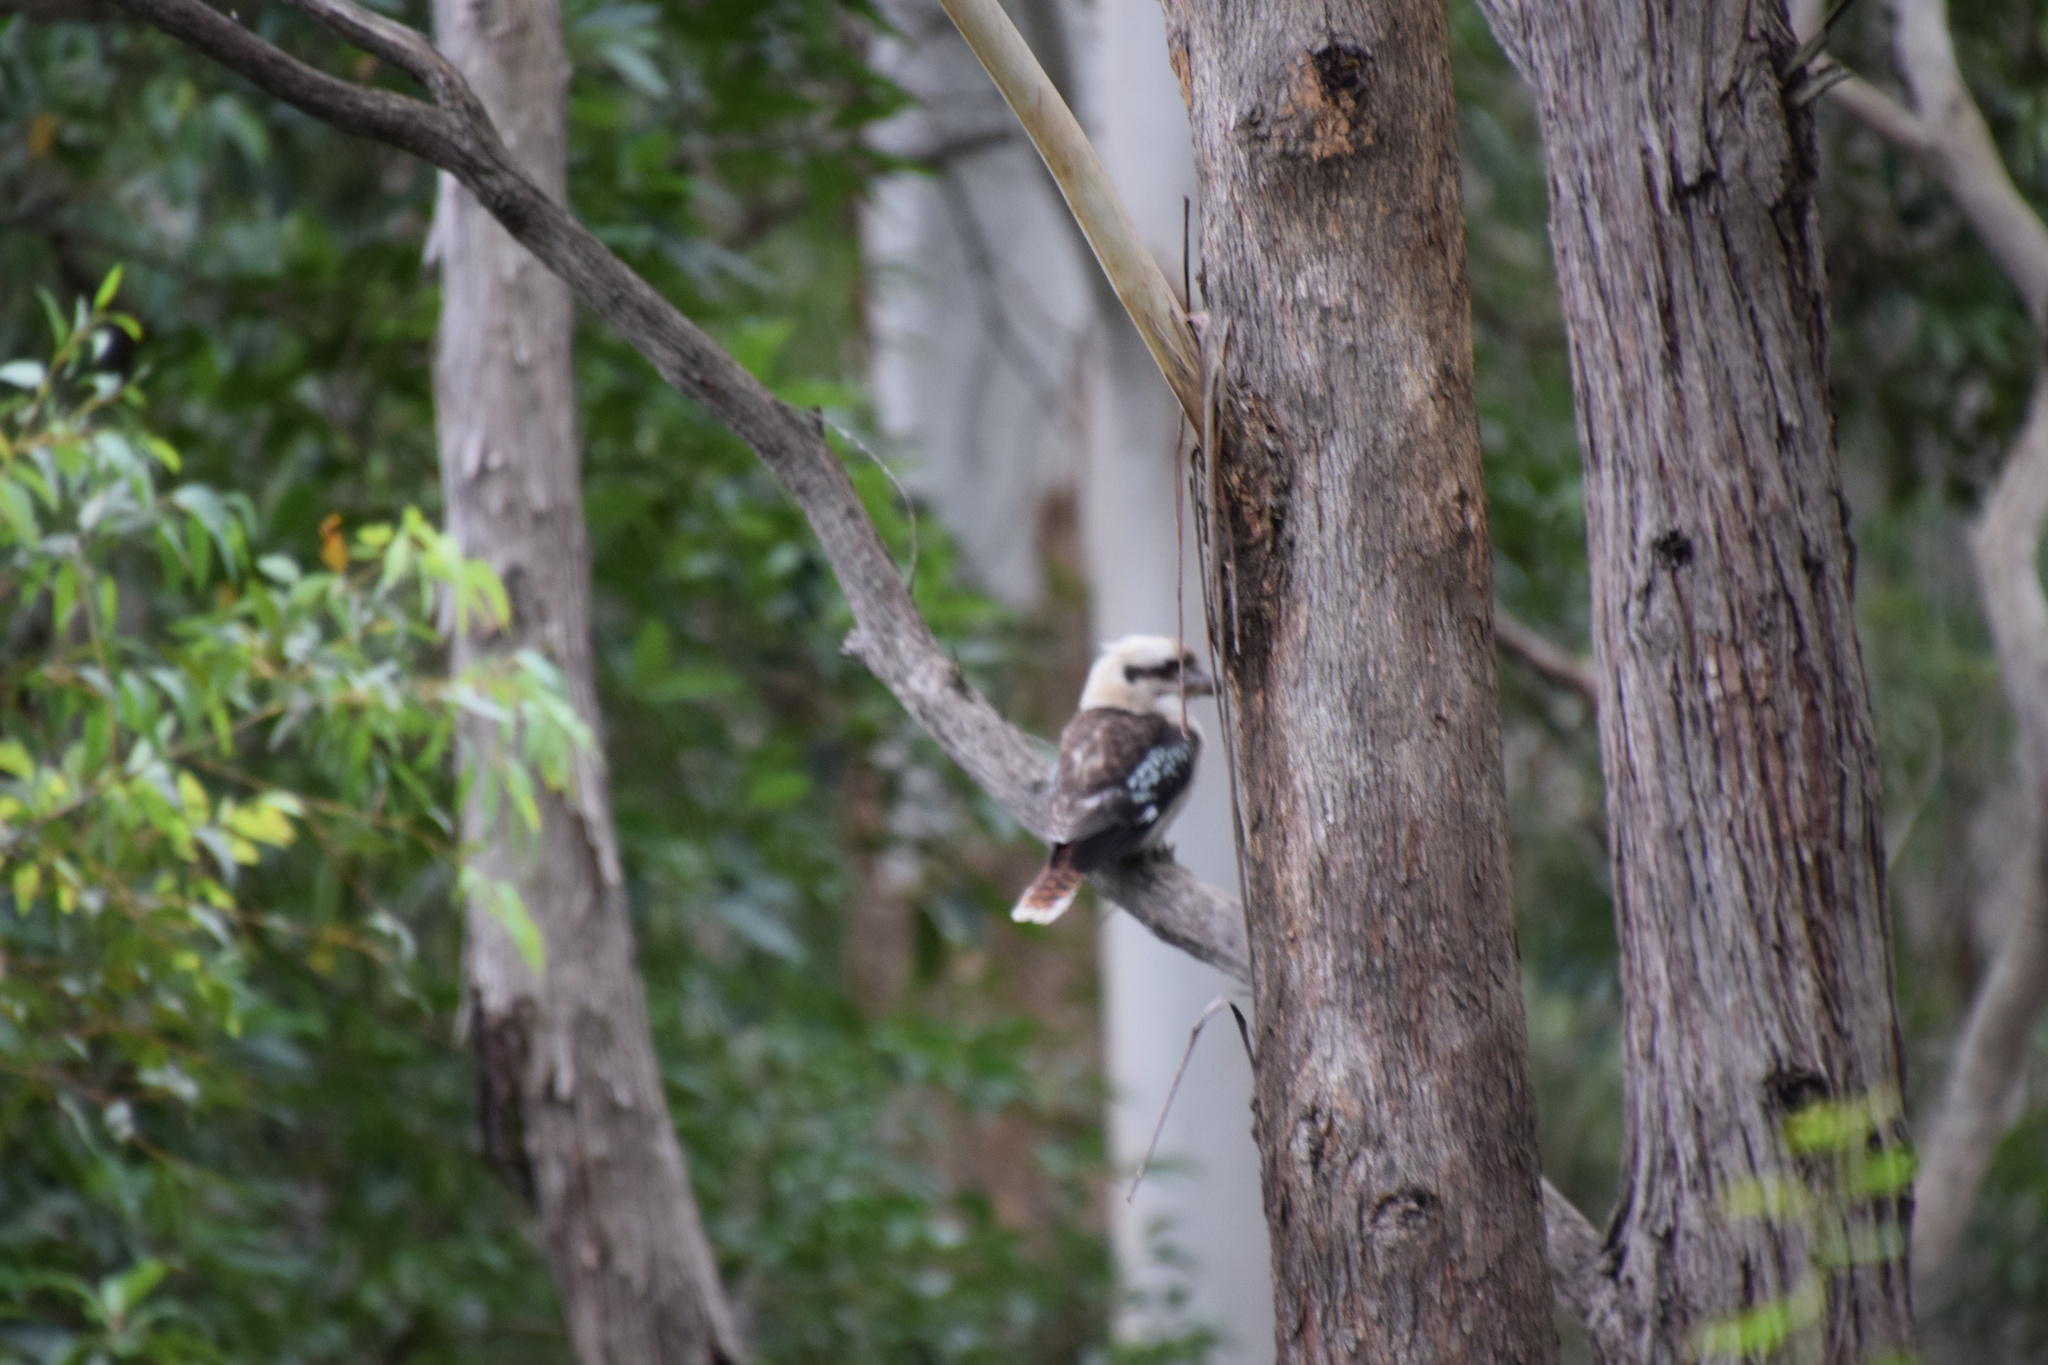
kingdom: Animalia
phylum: Chordata
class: Aves
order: Coraciiformes
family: Alcedinidae
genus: Dacelo
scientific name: Dacelo novaeguineae
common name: Laughing kookaburra
